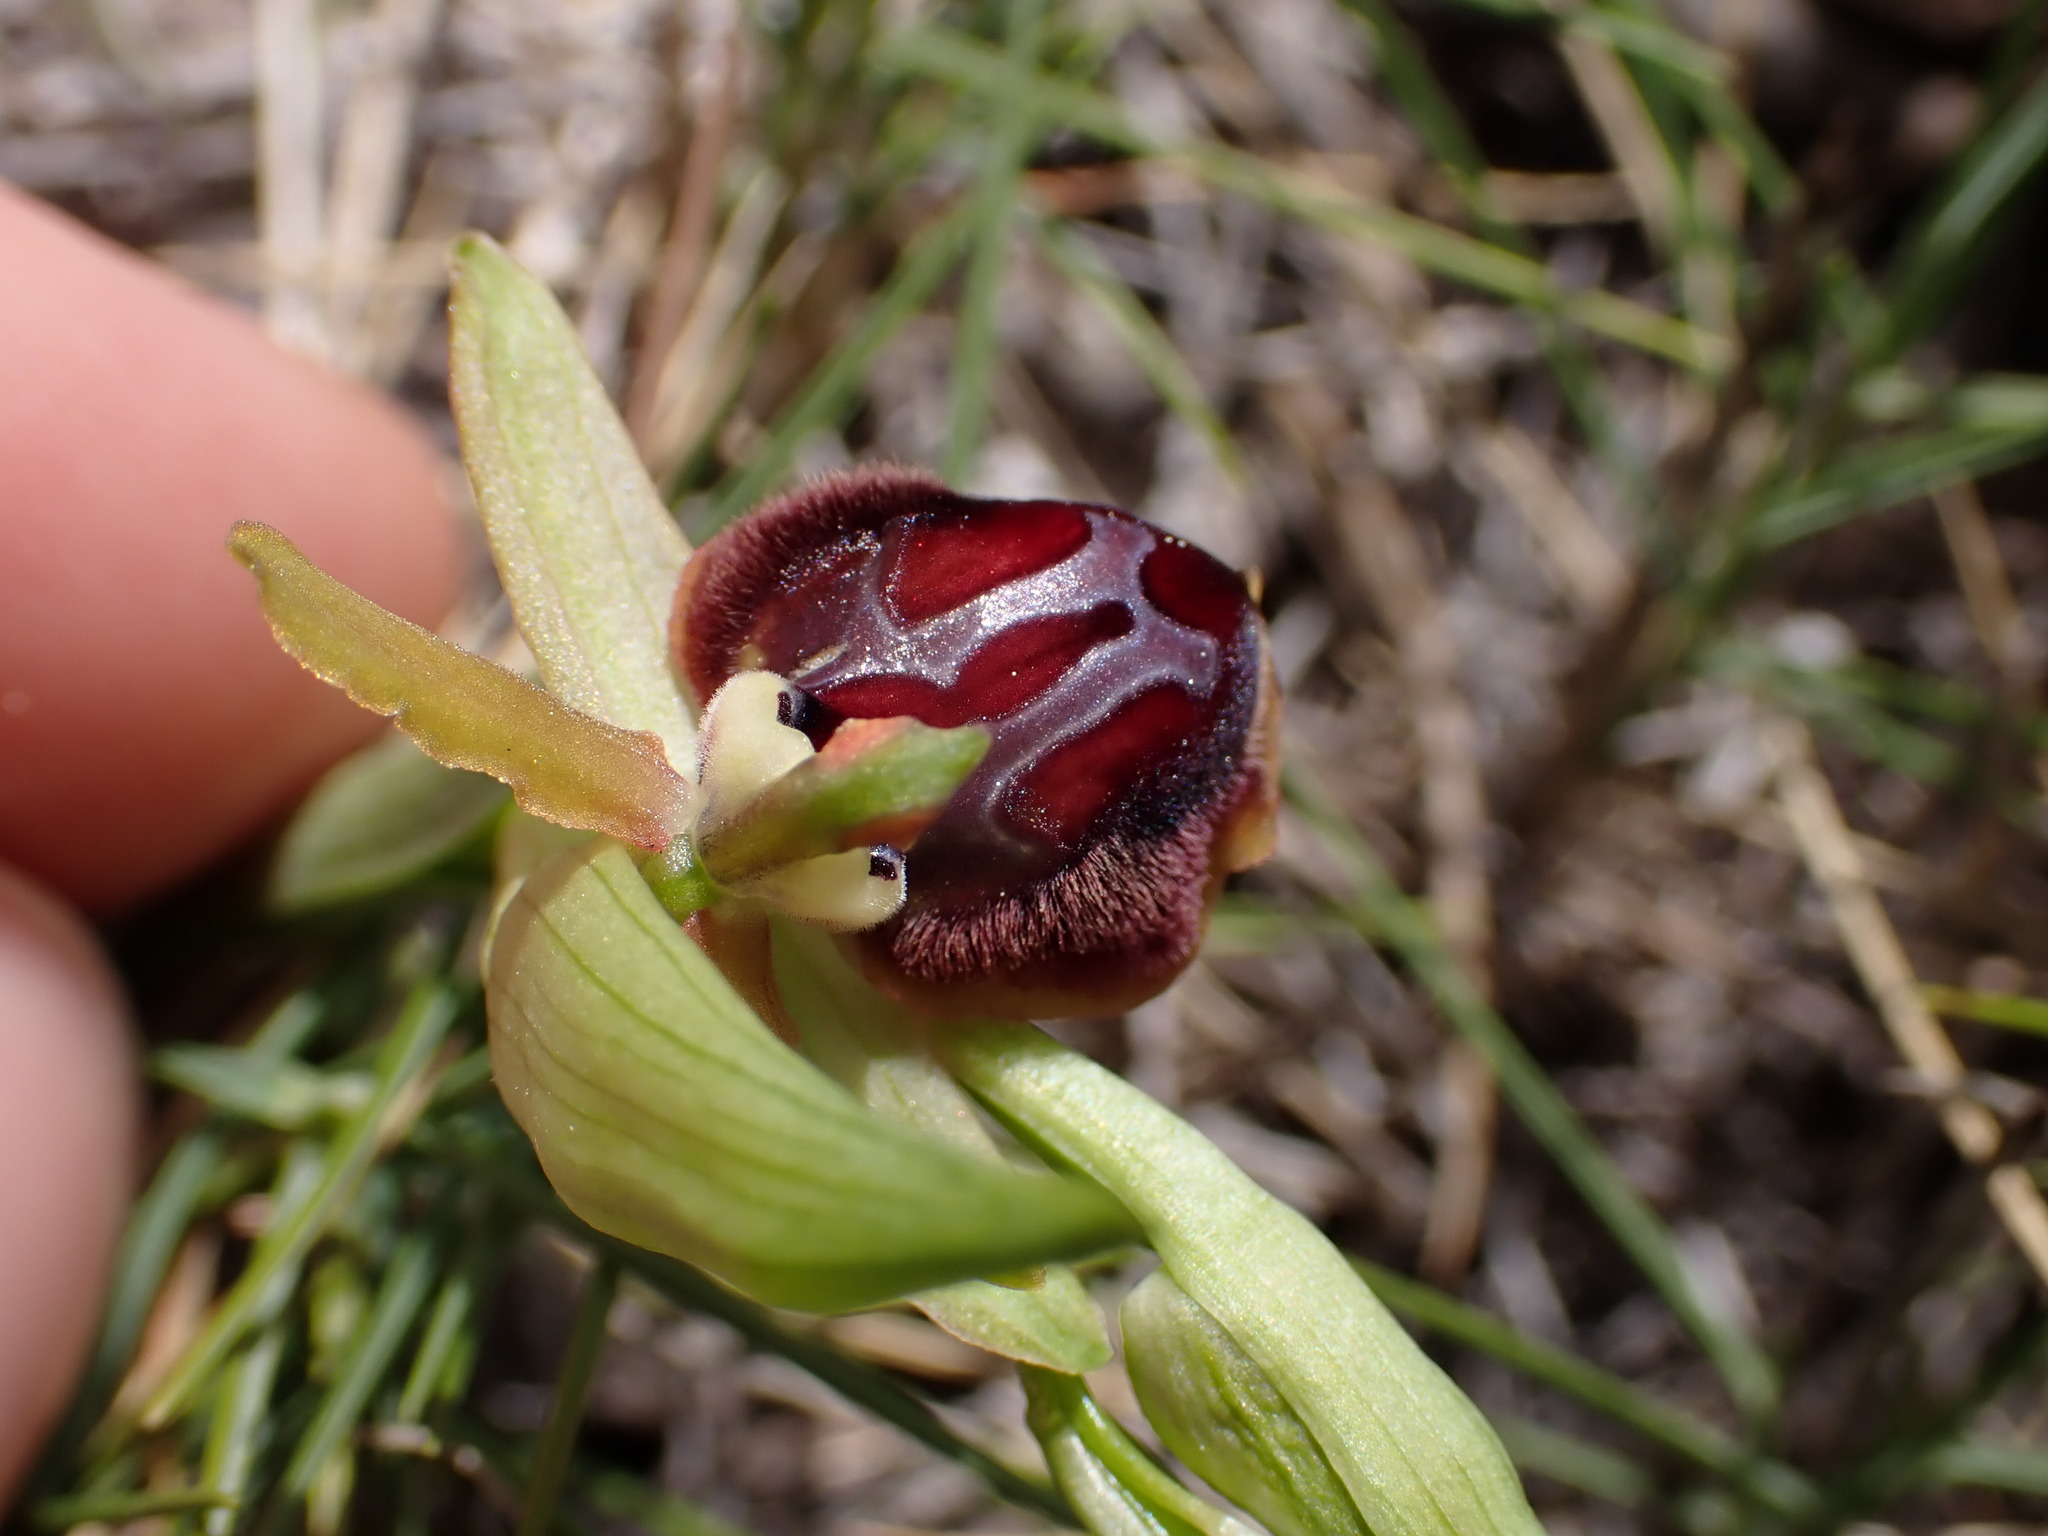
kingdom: Plantae
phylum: Tracheophyta
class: Liliopsida
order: Asparagales
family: Orchidaceae
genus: Ophrys
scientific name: Ophrys sphegodes
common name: Early spider-orchid
